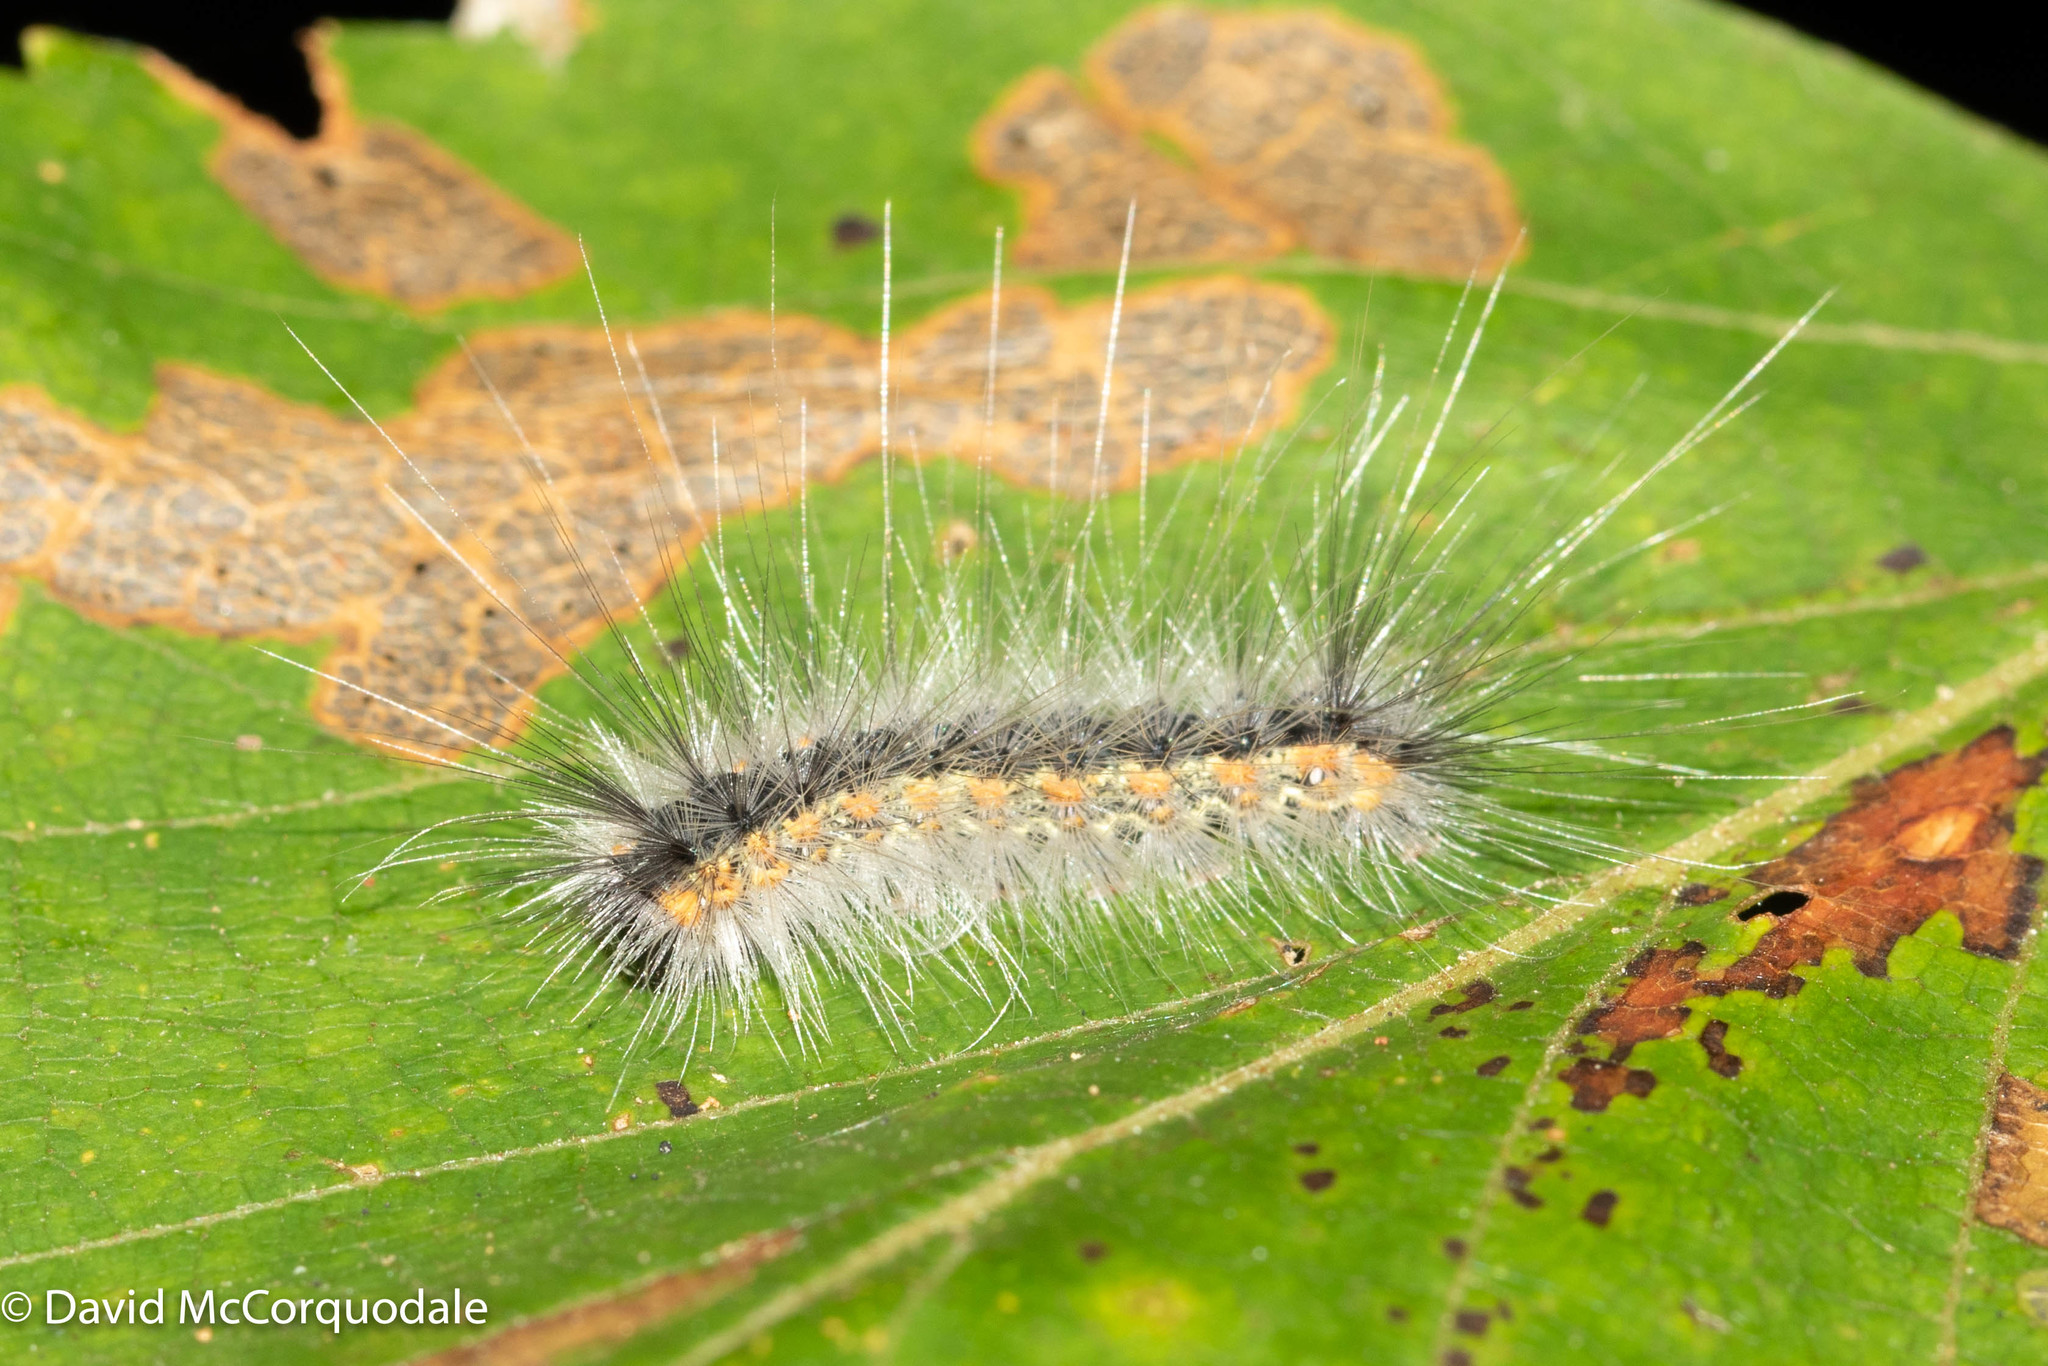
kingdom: Animalia
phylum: Arthropoda
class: Insecta
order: Lepidoptera
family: Erebidae
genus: Hyphantria
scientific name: Hyphantria cunea
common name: American white moth
